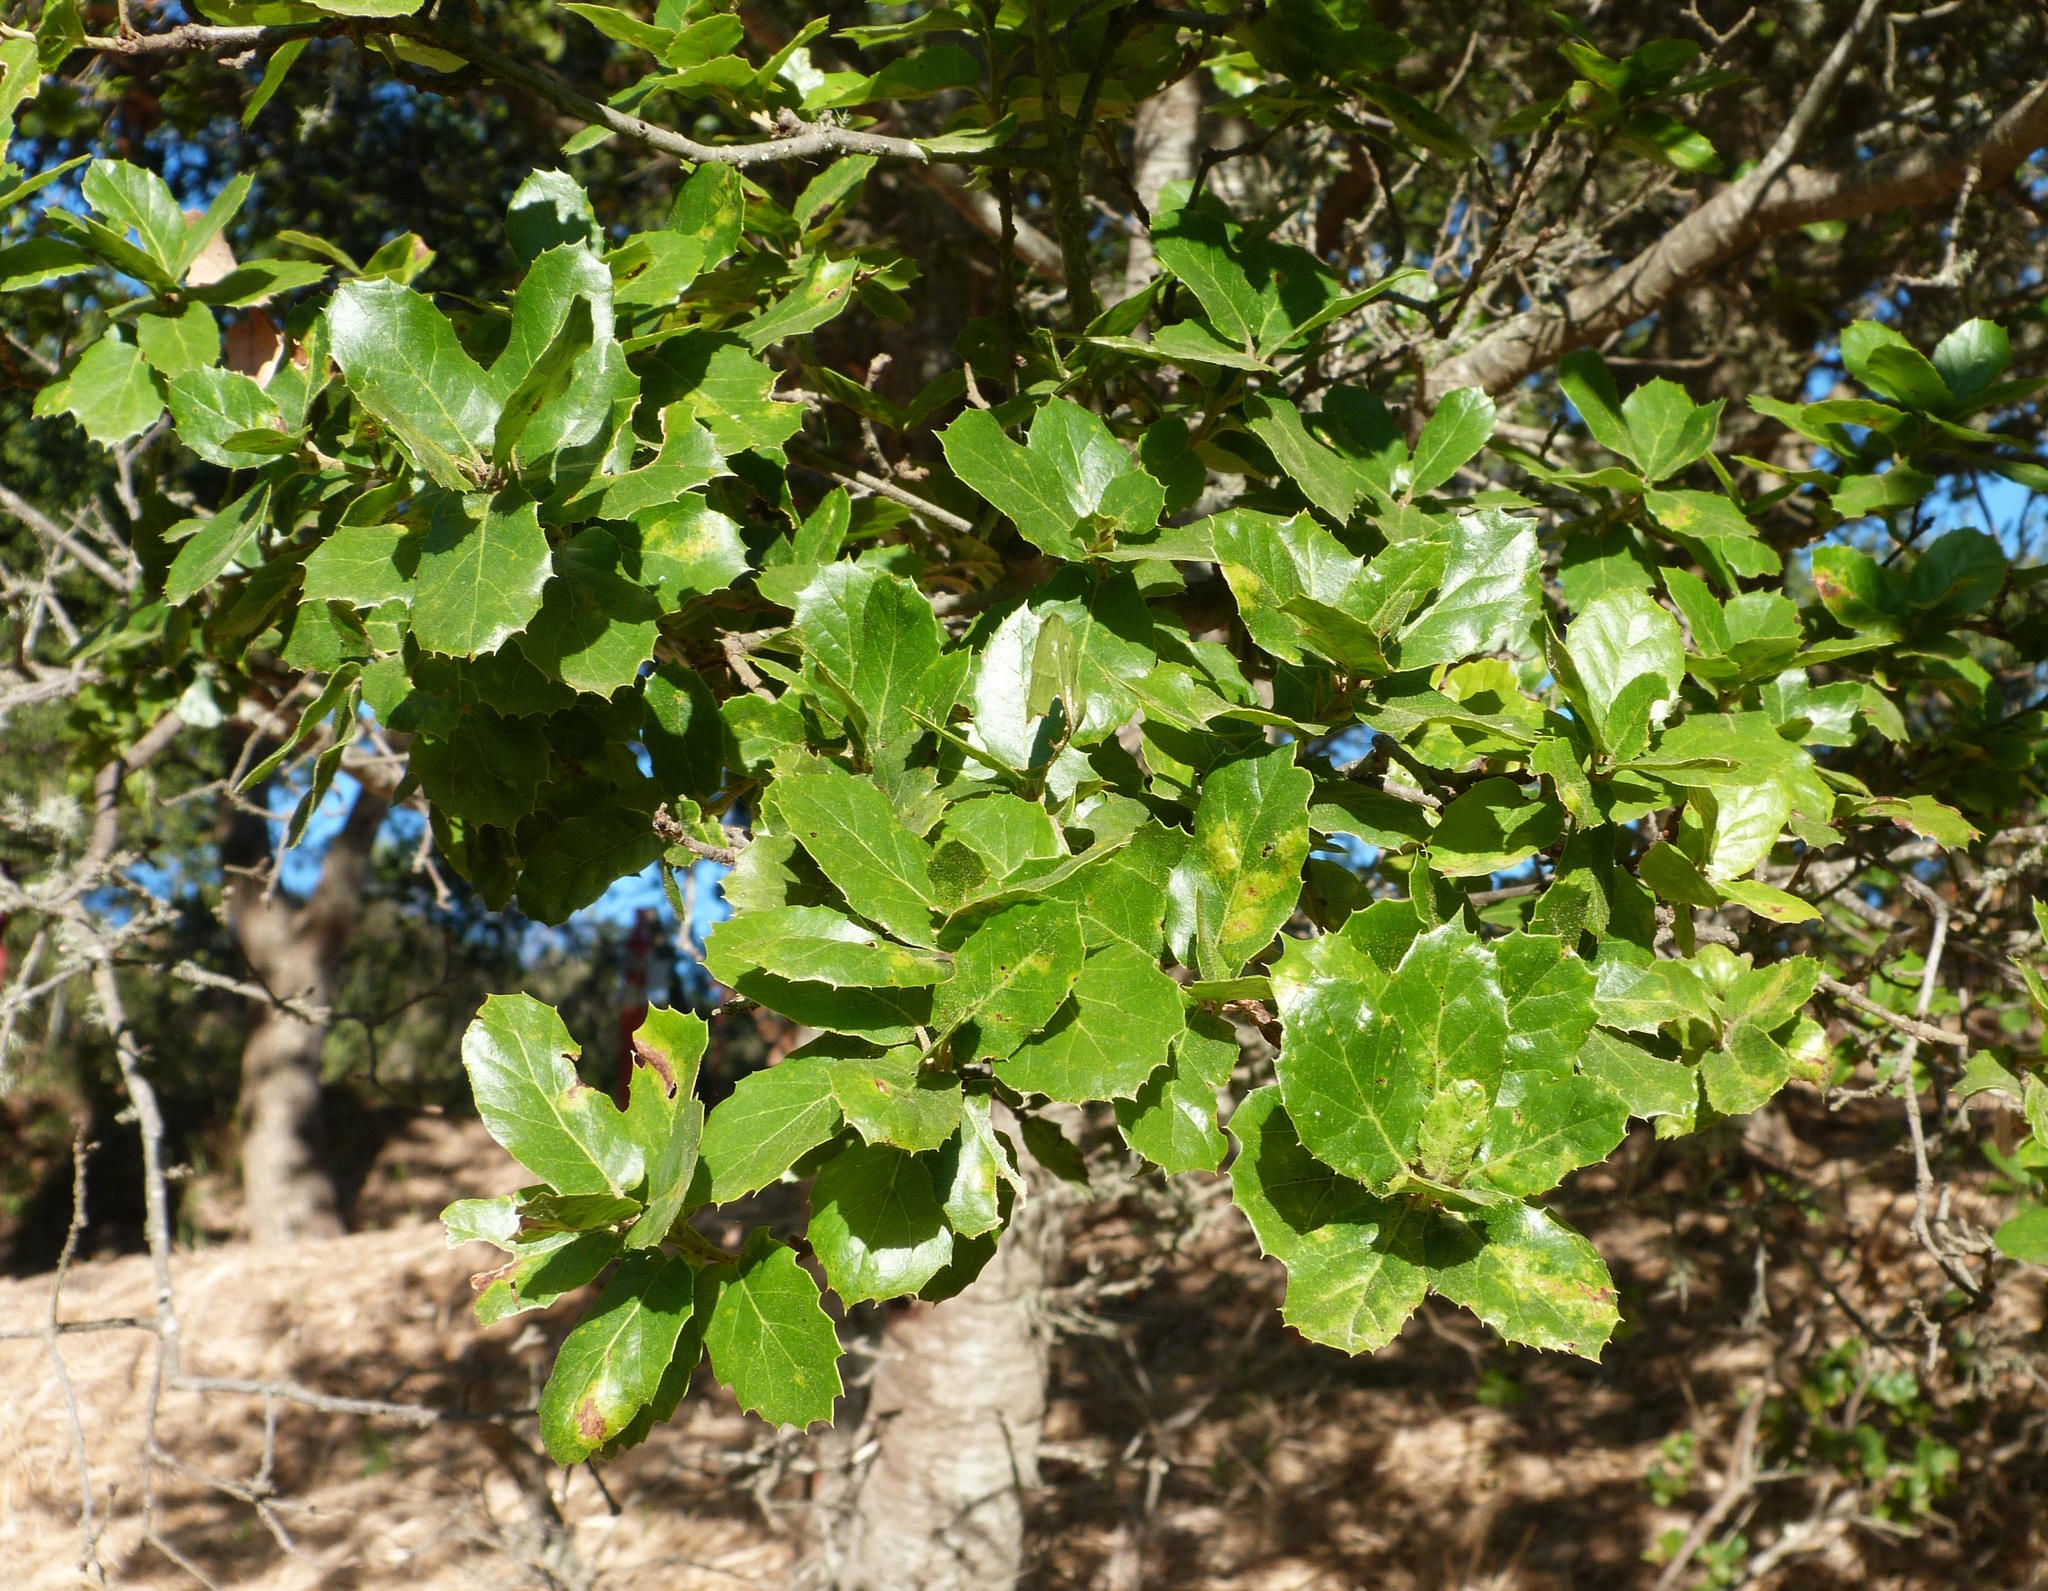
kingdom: Plantae
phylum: Tracheophyta
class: Magnoliopsida
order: Fagales
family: Fagaceae
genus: Quercus
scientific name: Quercus agrifolia
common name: California live oak
